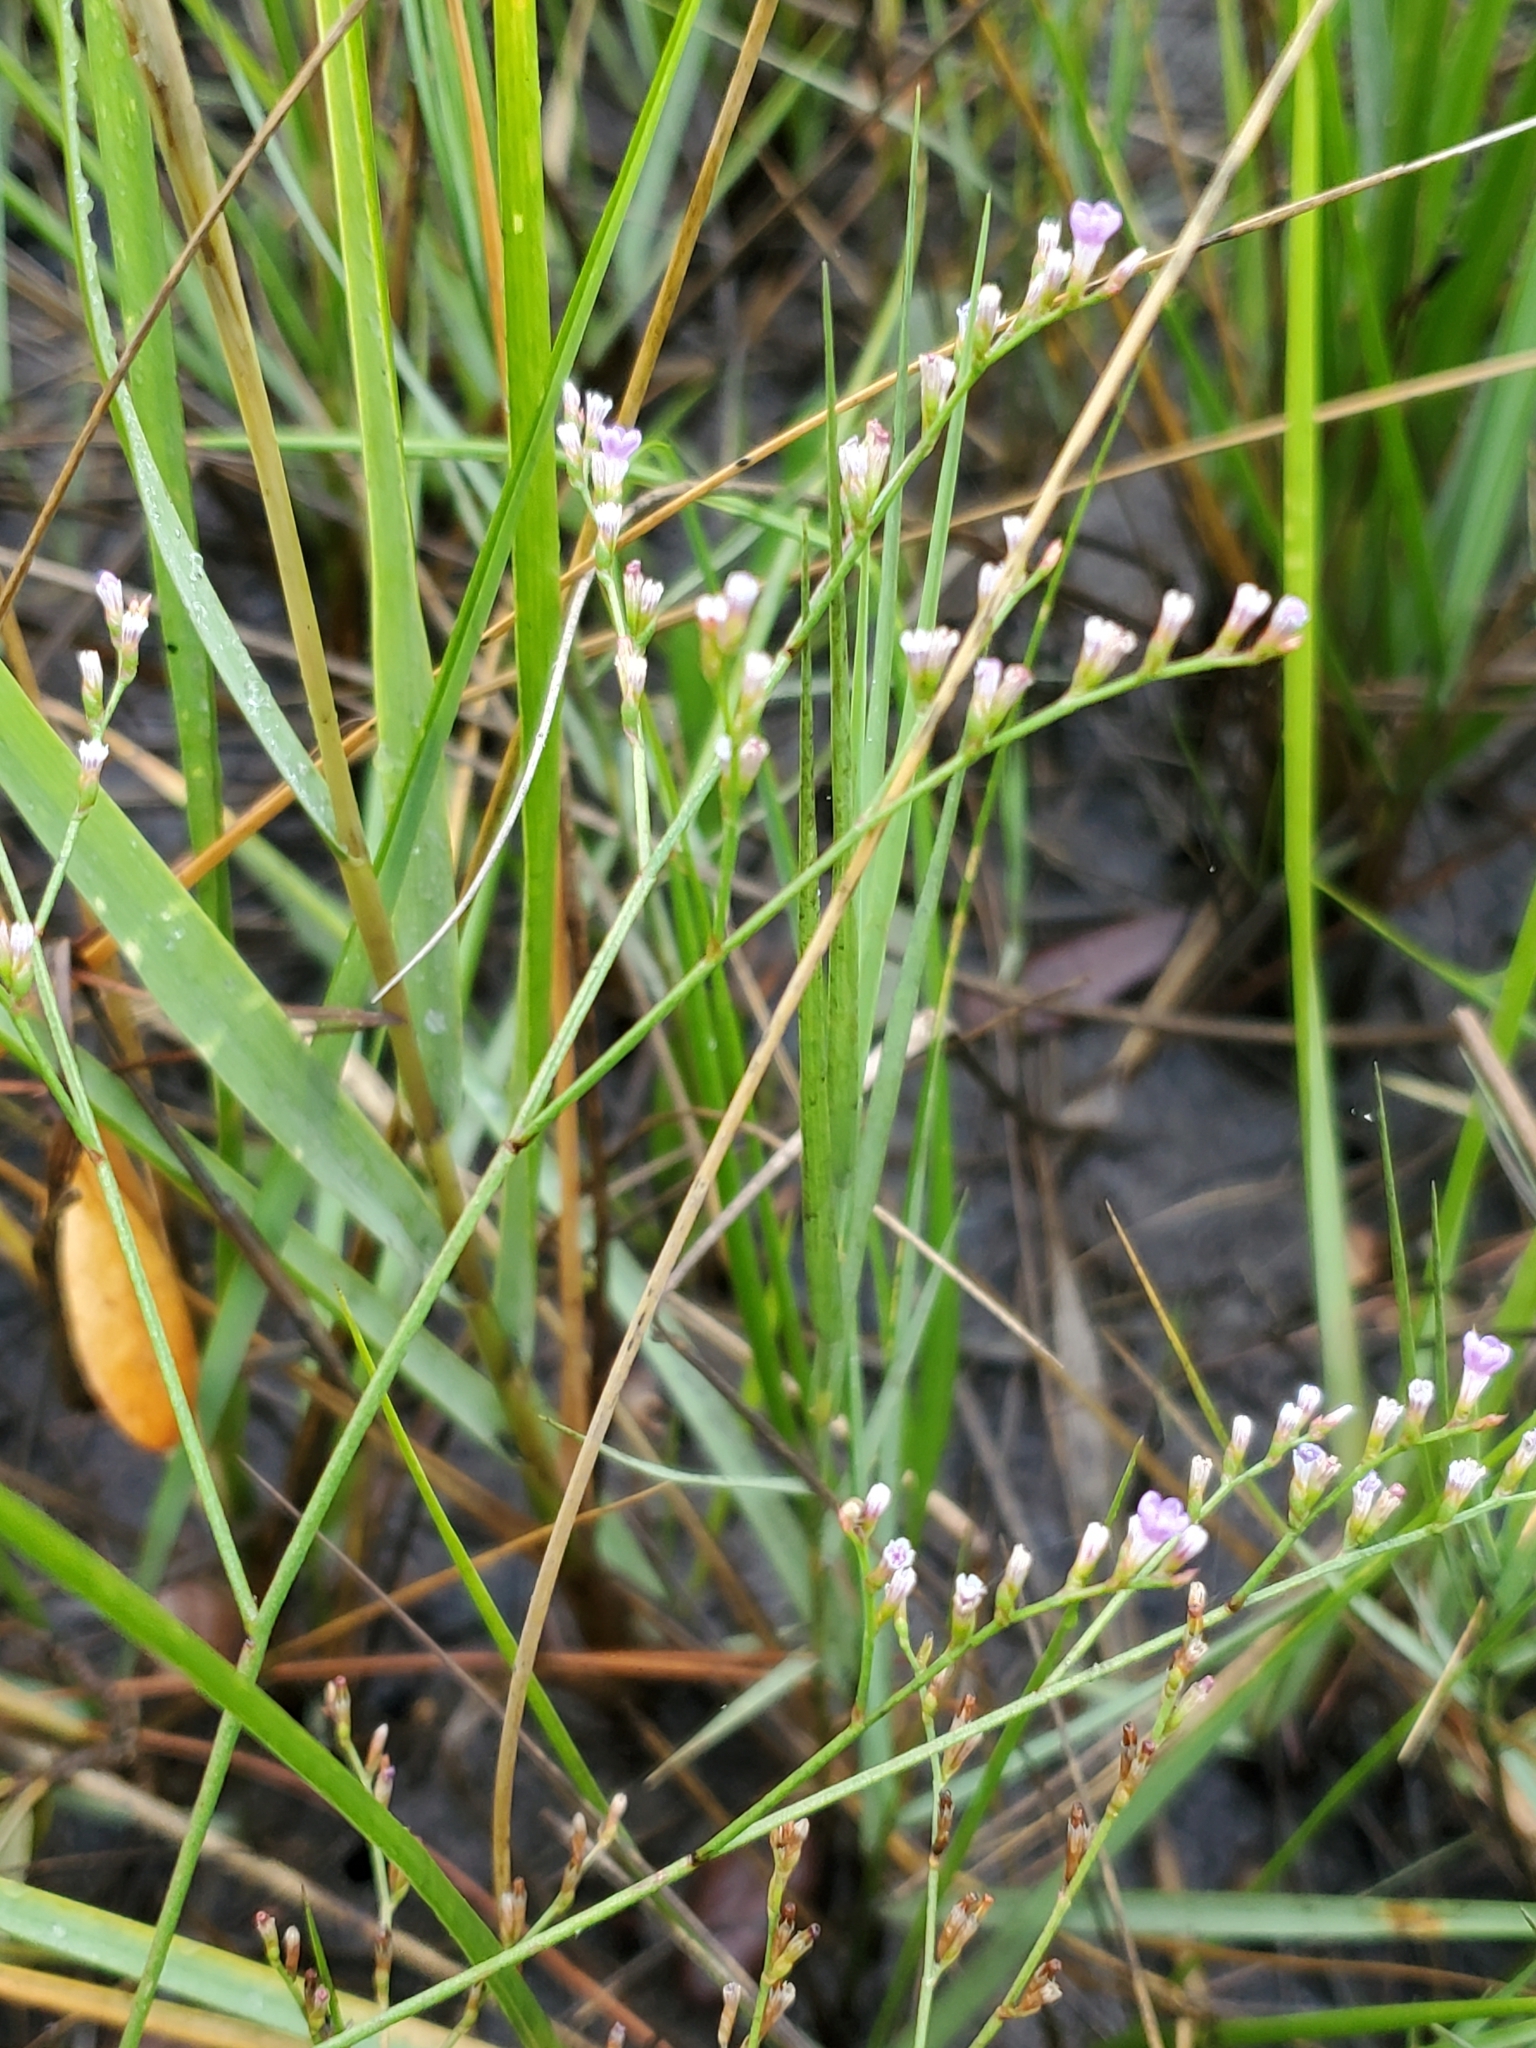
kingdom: Plantae
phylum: Tracheophyta
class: Magnoliopsida
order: Caryophyllales
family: Plumbaginaceae
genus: Limonium
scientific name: Limonium carolinianum
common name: Carolina sea lavender
